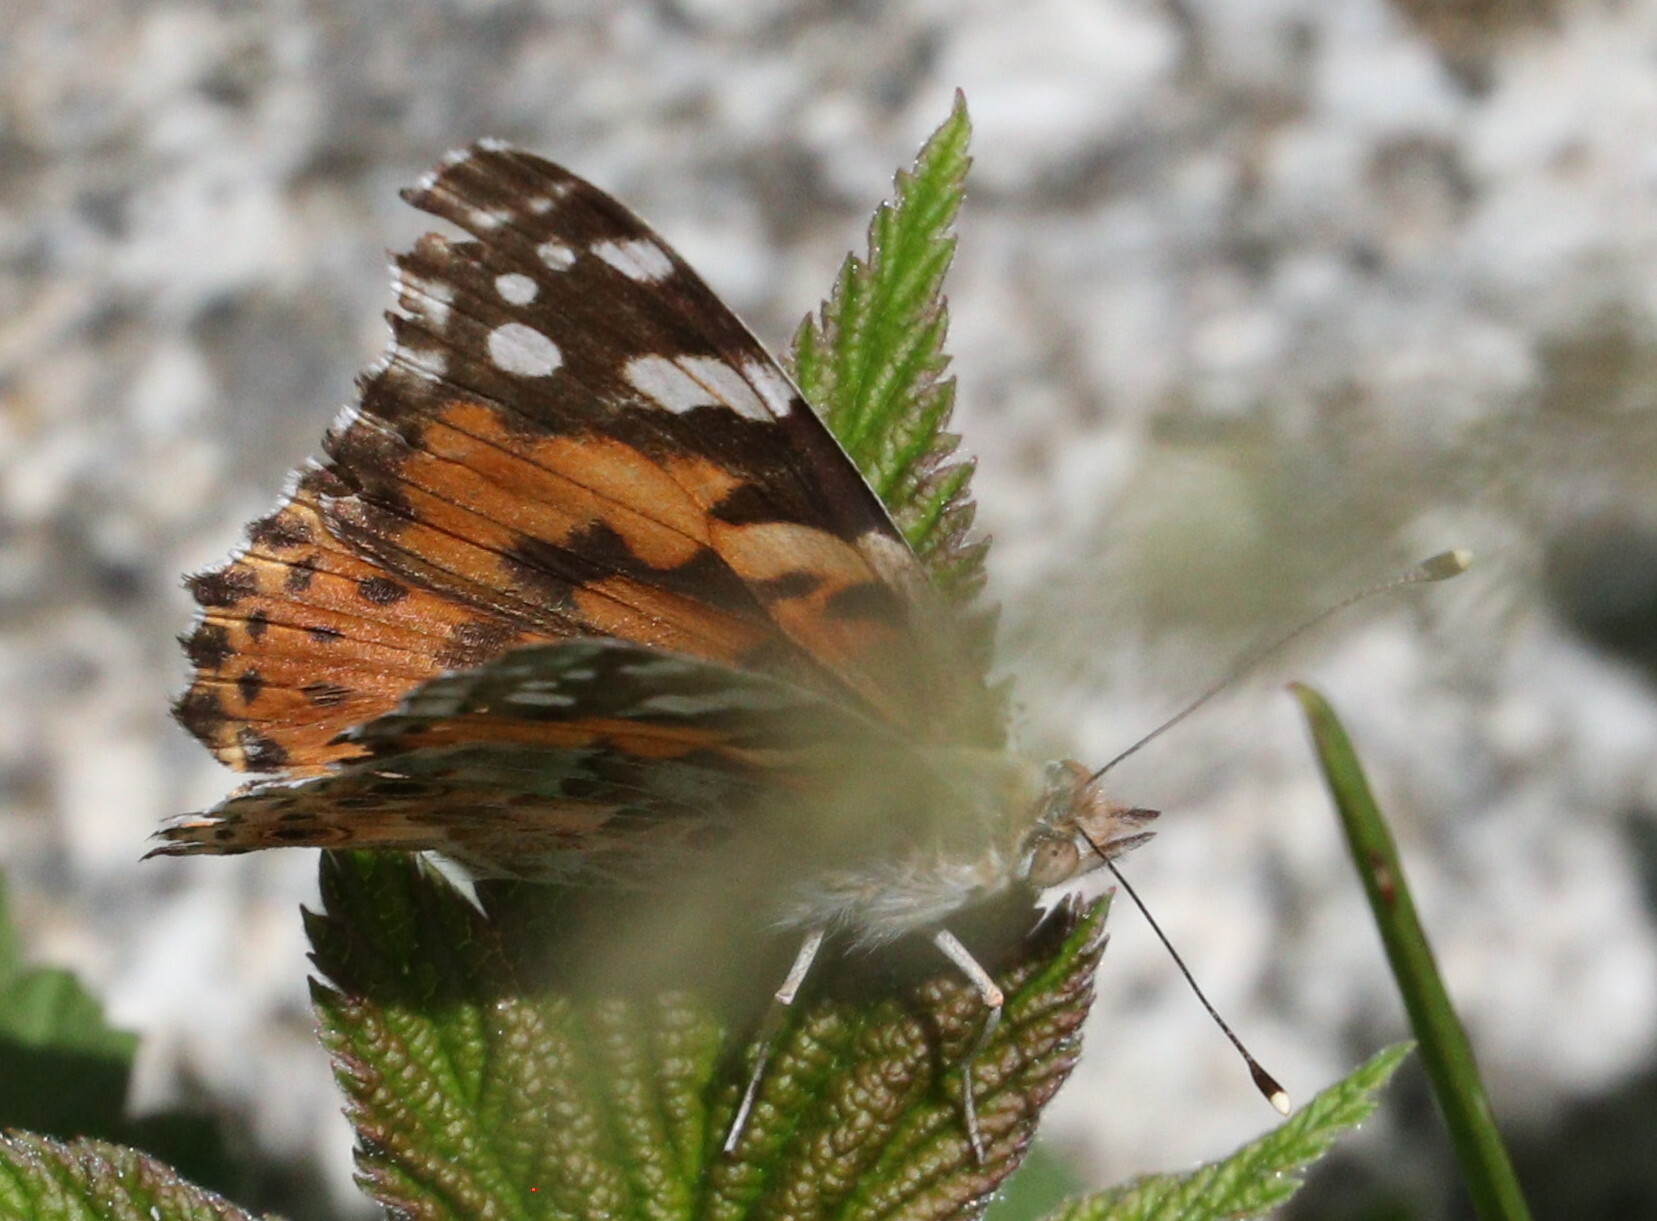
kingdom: Animalia
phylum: Arthropoda
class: Insecta
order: Lepidoptera
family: Nymphalidae
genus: Vanessa
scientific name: Vanessa cardui
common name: Painted lady
